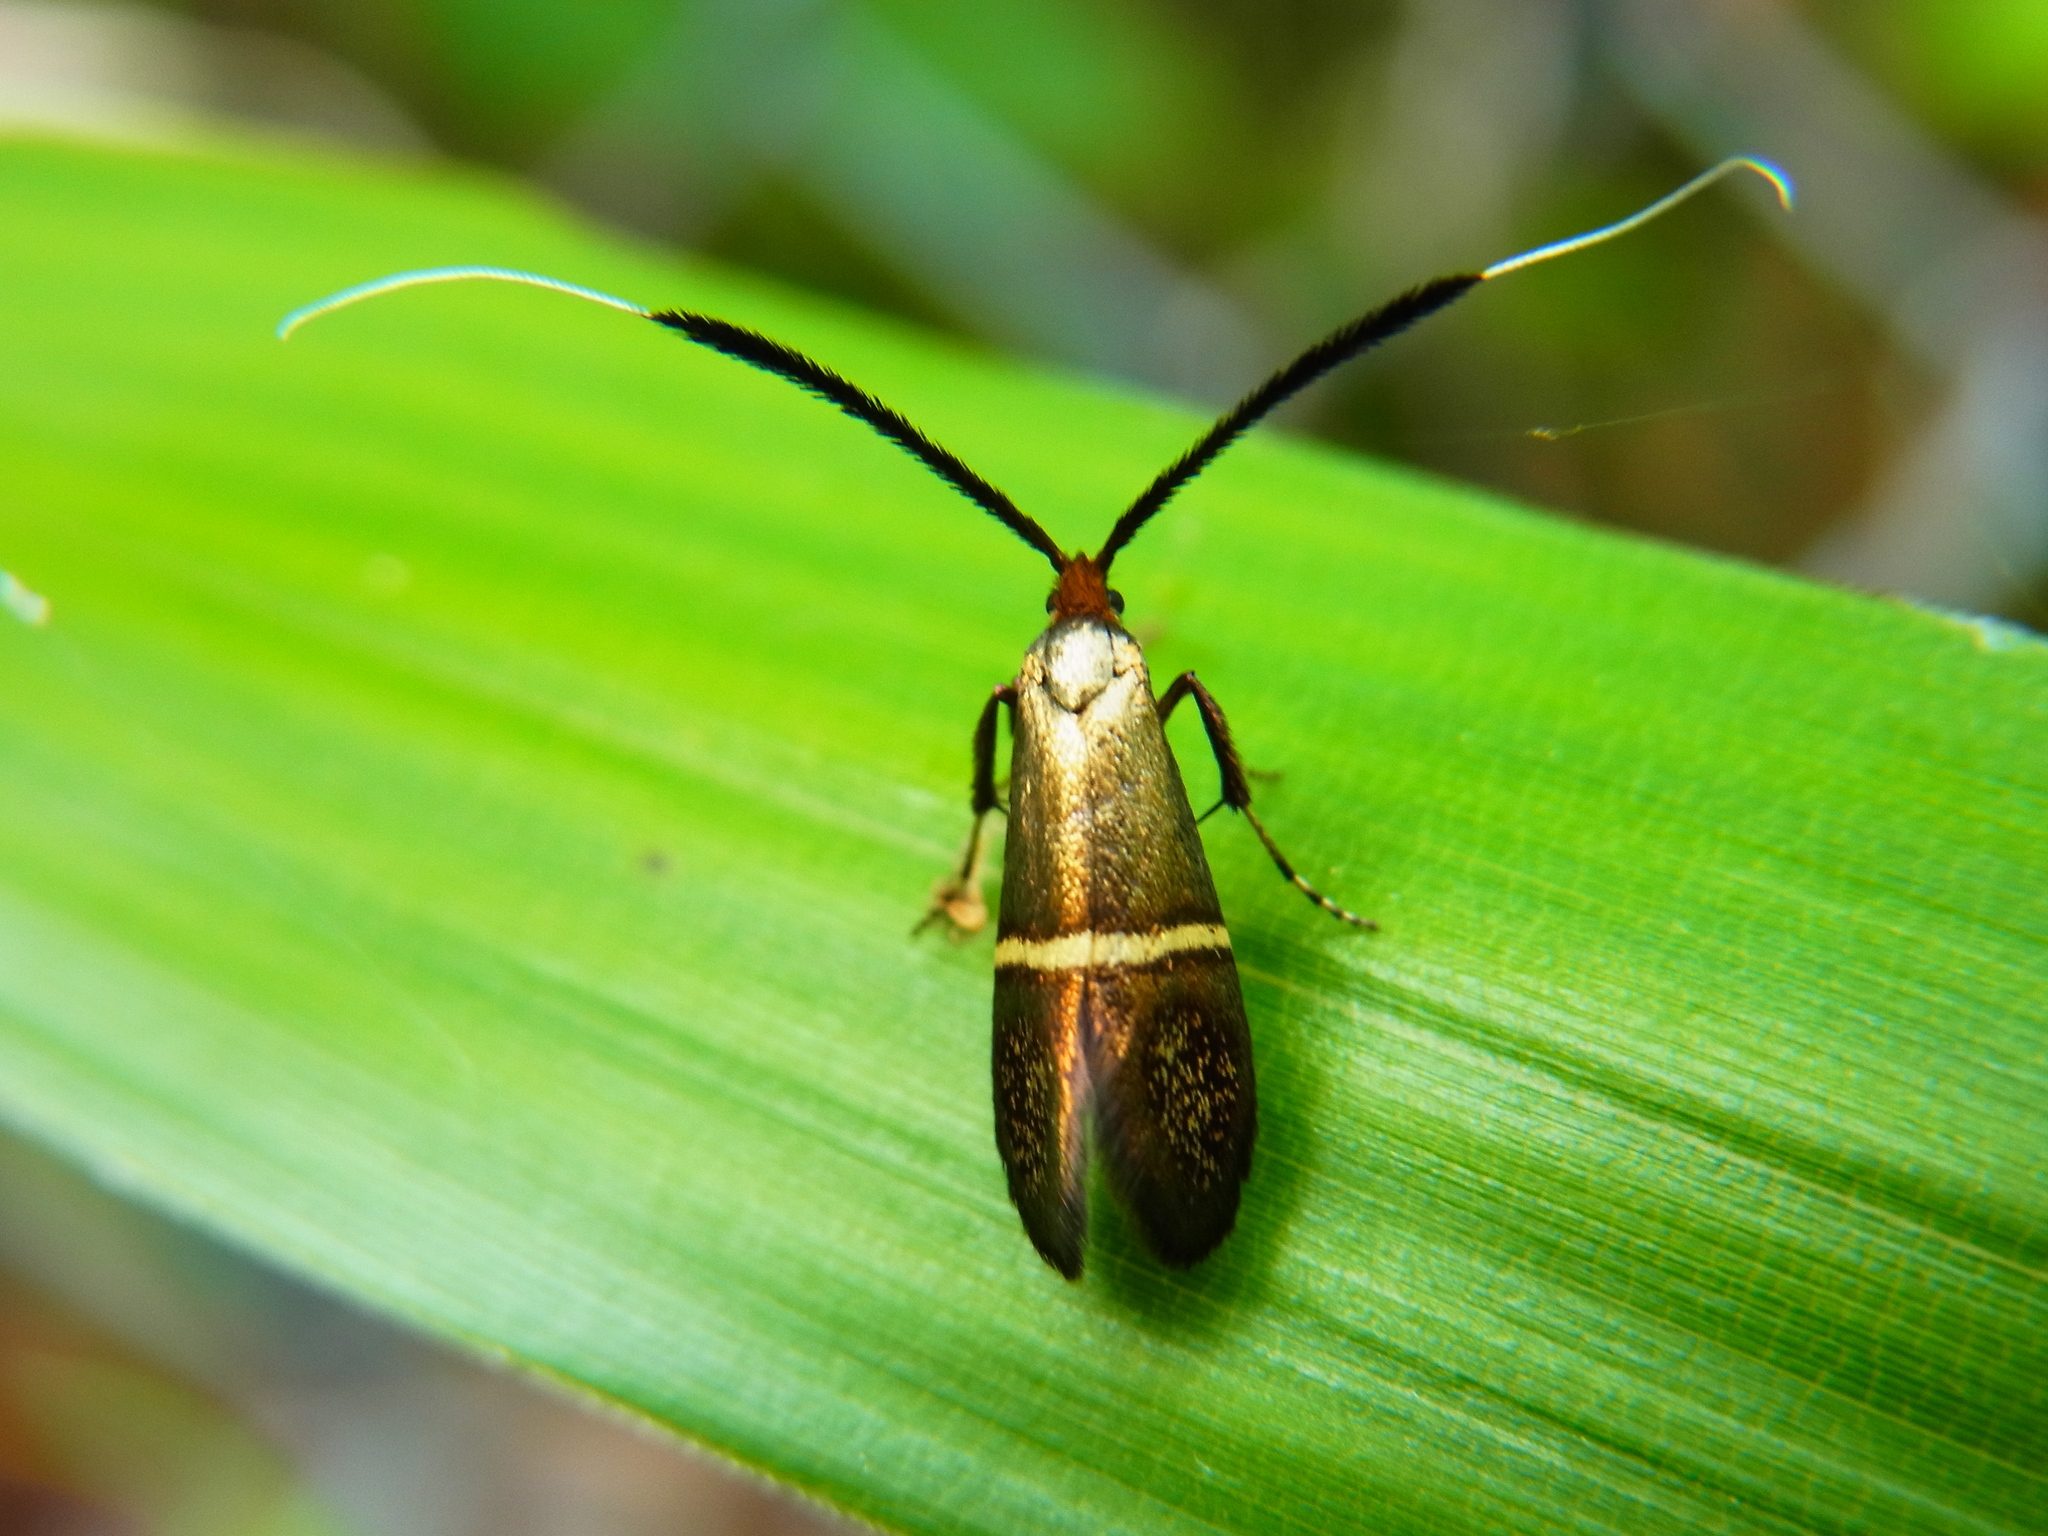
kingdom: Animalia
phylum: Arthropoda
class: Insecta
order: Lepidoptera
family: Adelidae
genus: Nemophora
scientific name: Nemophora aurifera
